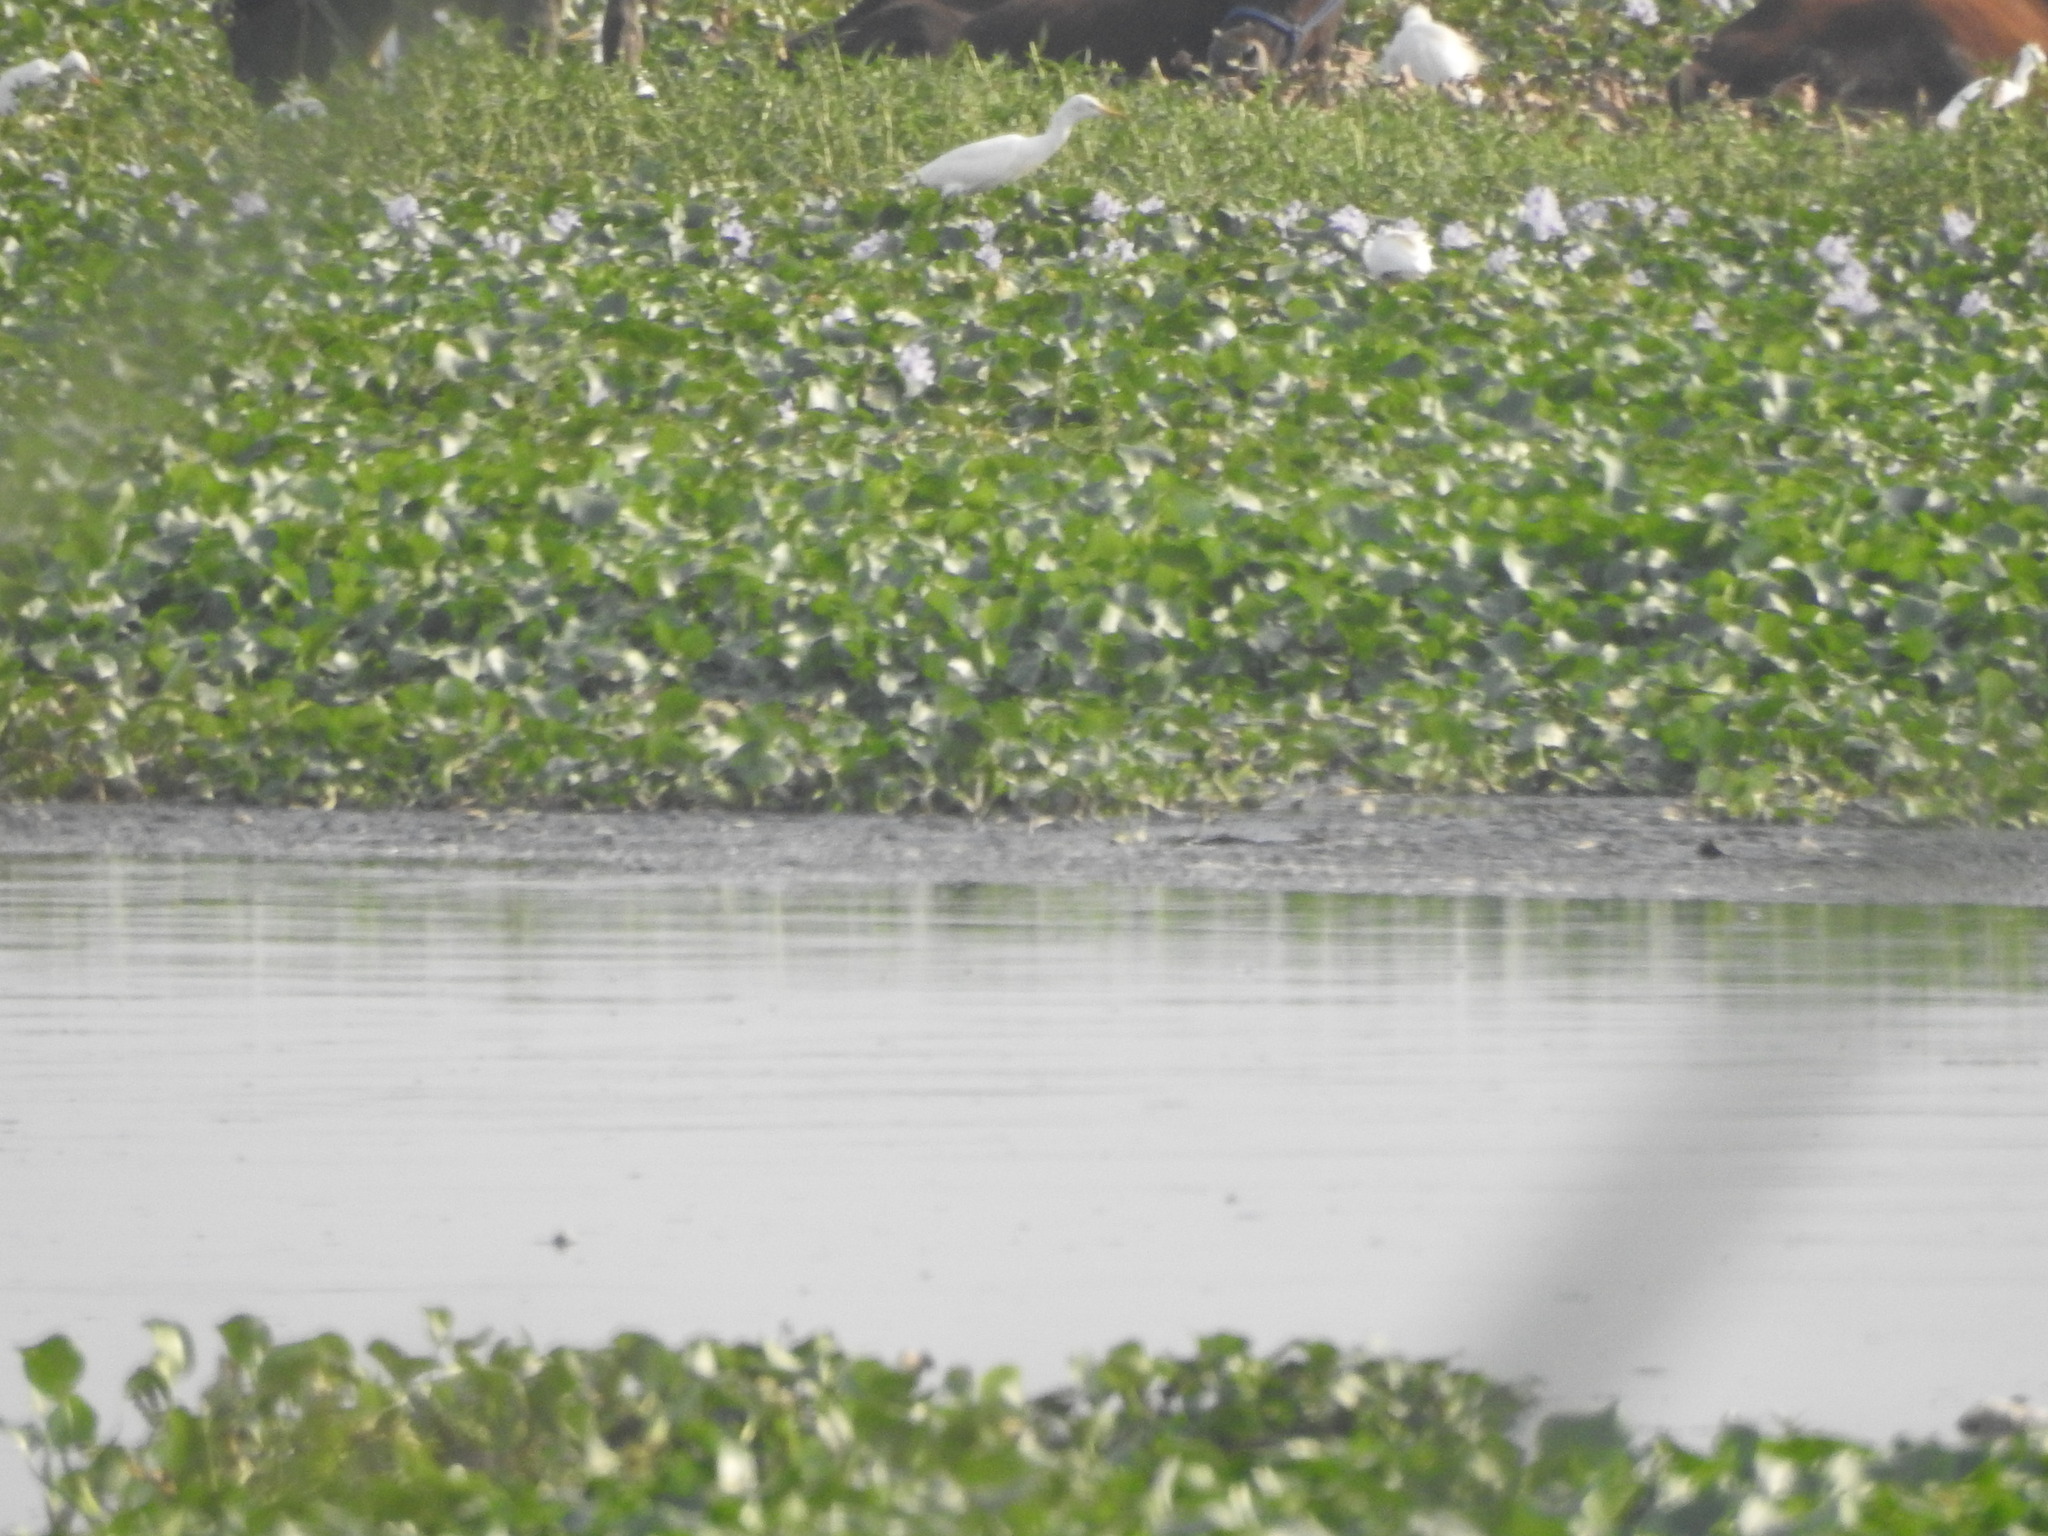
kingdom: Animalia
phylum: Chordata
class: Aves
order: Pelecaniformes
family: Ardeidae
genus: Bubulcus
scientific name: Bubulcus coromandus
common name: Eastern cattle egret
